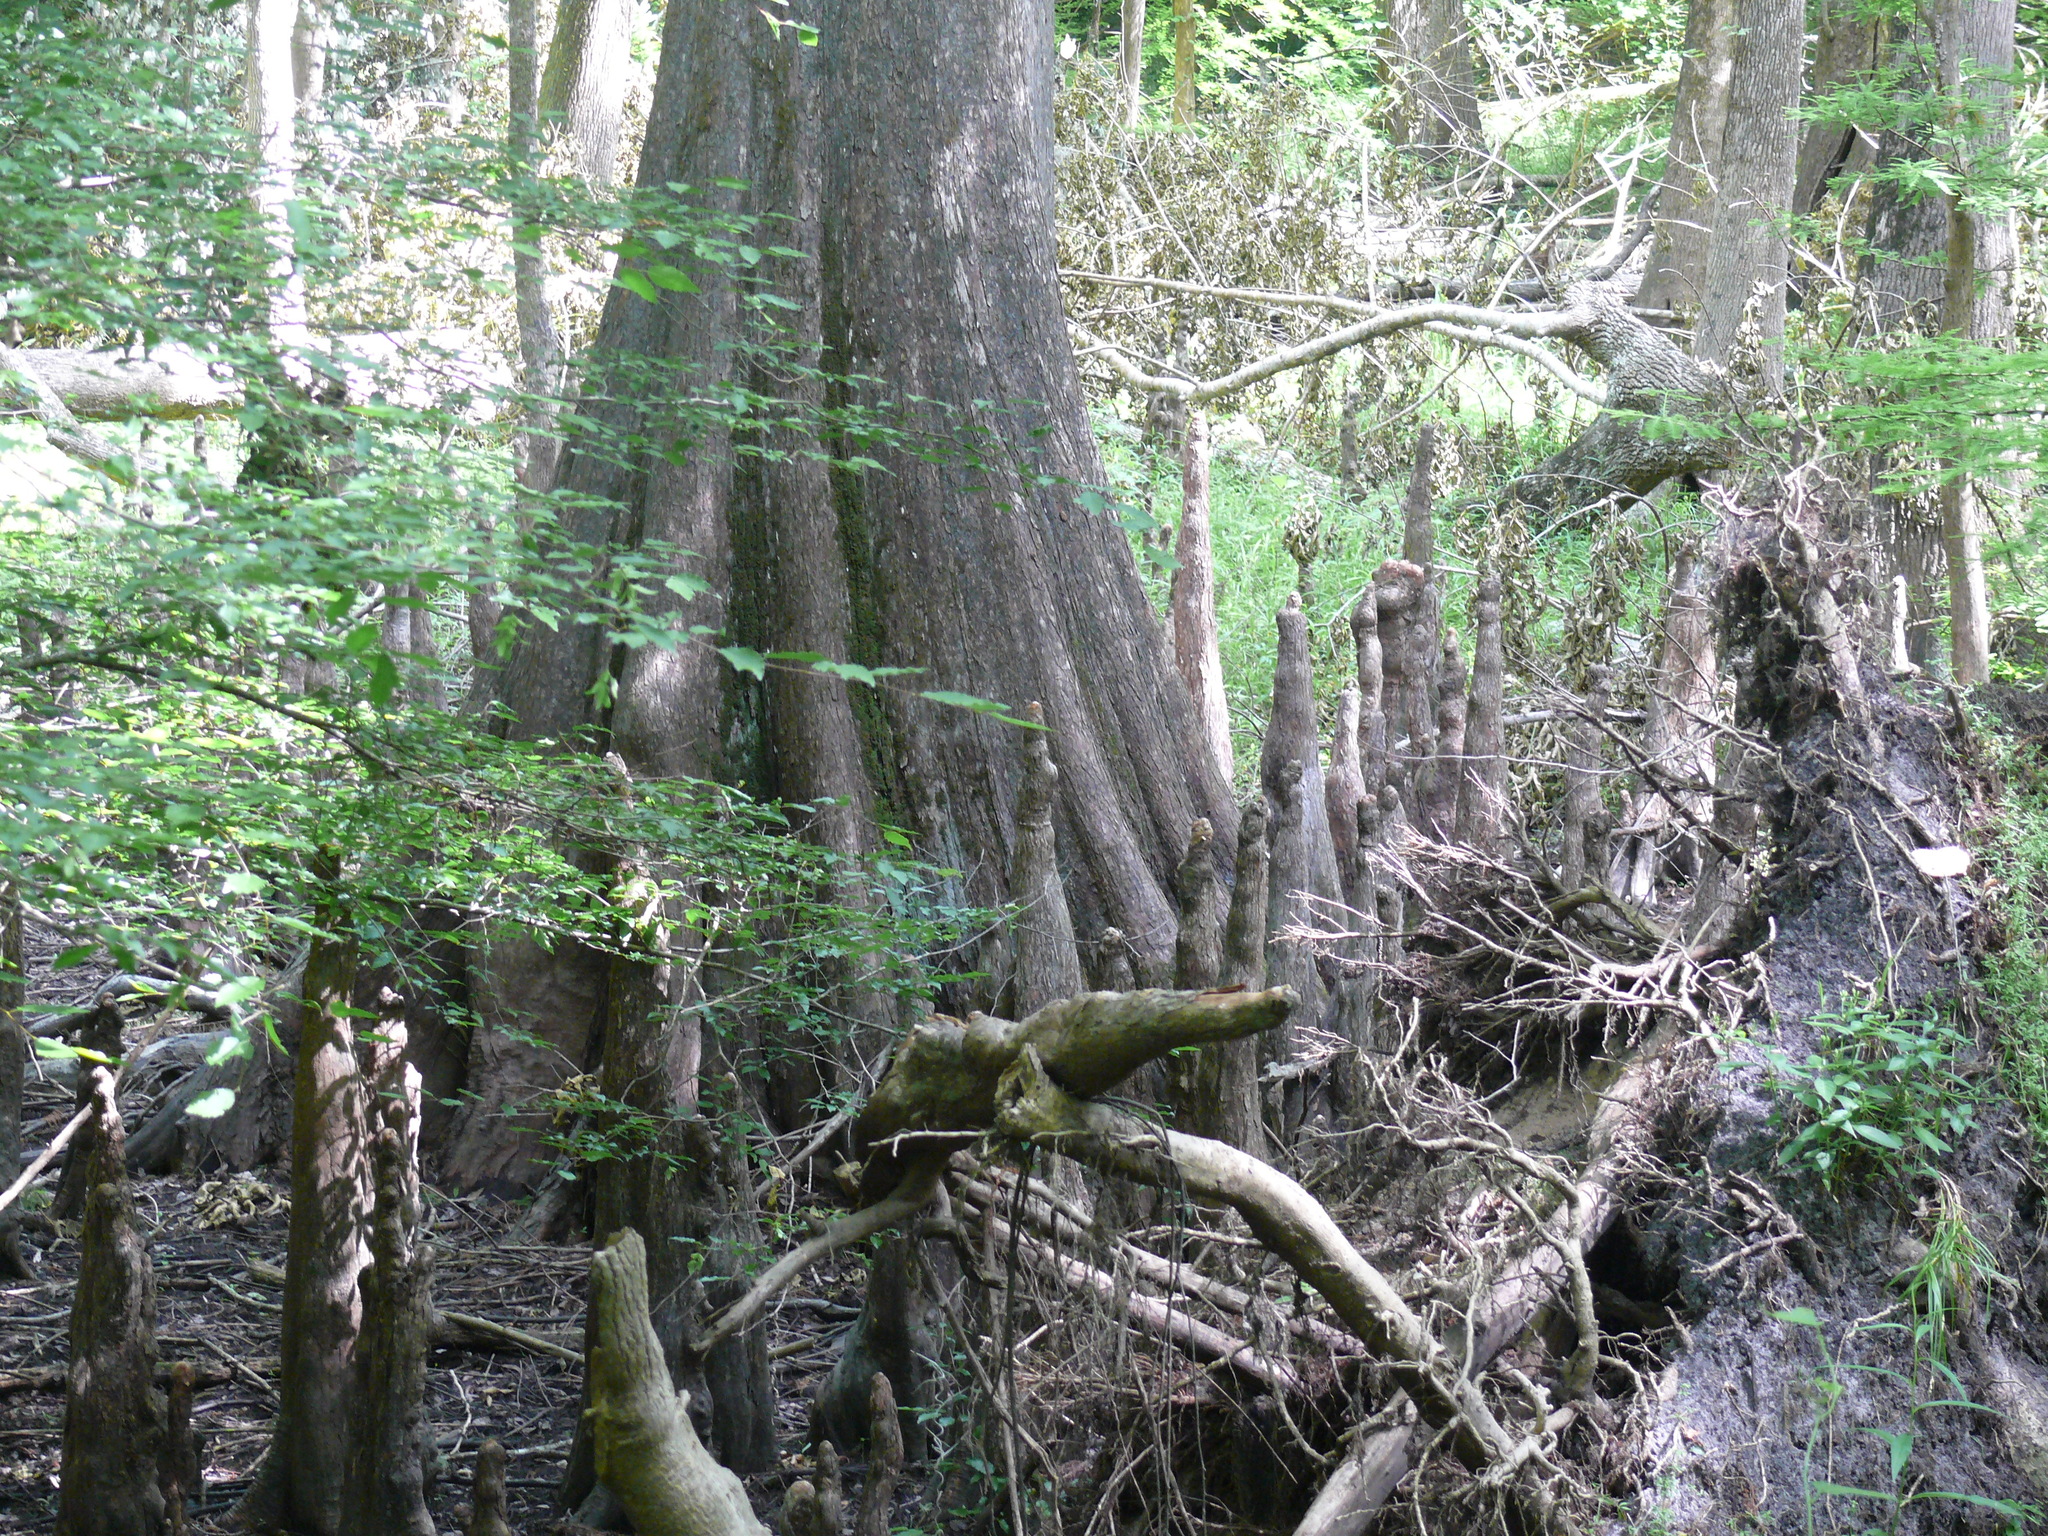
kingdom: Plantae
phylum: Tracheophyta
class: Pinopsida
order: Pinales
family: Cupressaceae
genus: Taxodium
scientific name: Taxodium distichum
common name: Bald cypress
